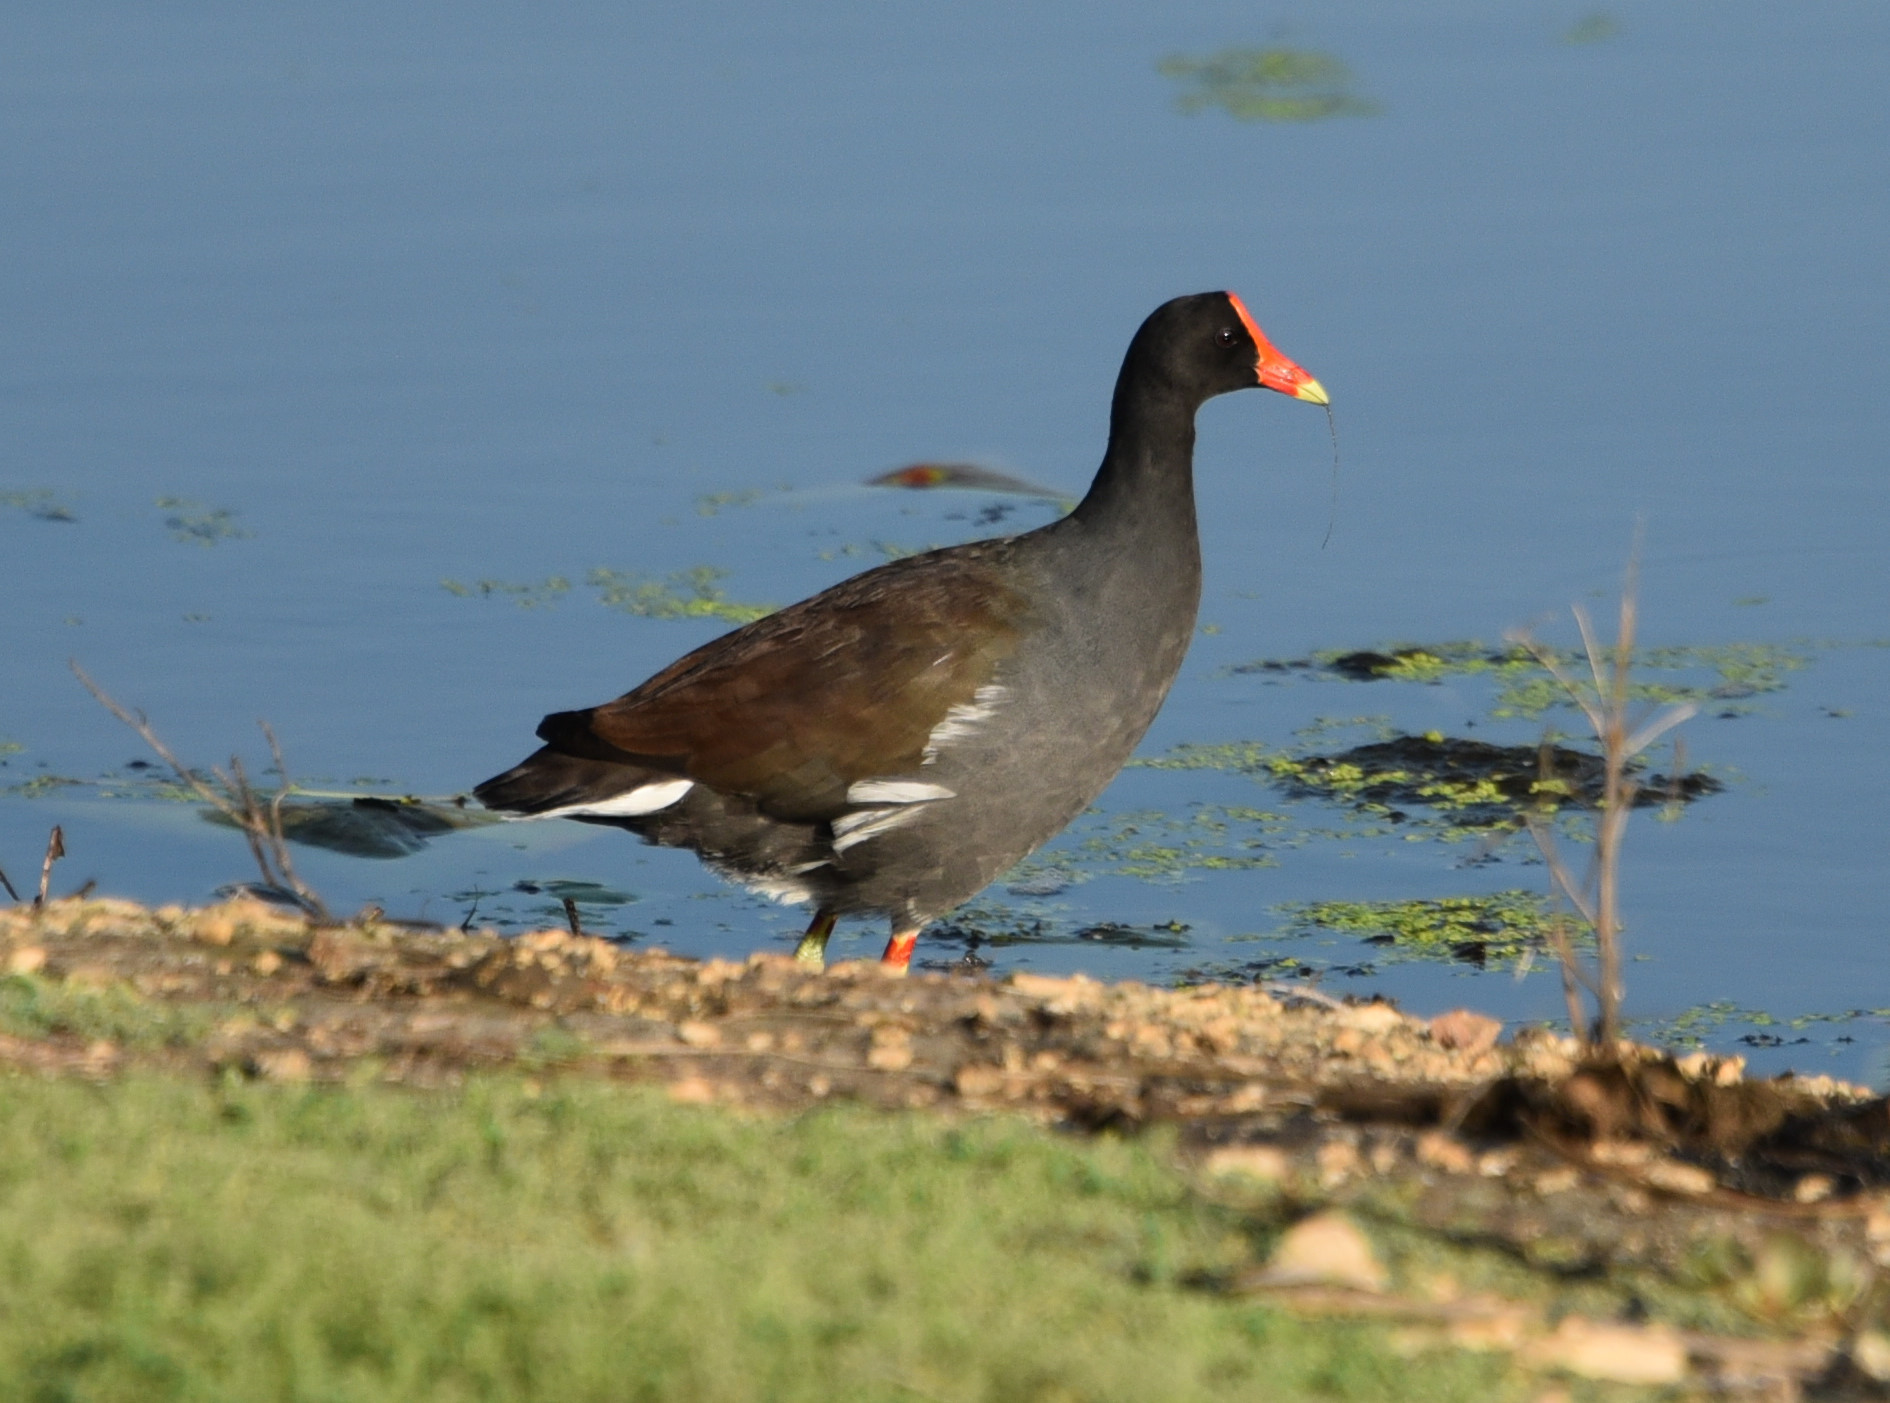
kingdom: Animalia
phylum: Chordata
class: Aves
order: Gruiformes
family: Rallidae
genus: Gallinula
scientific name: Gallinula chloropus
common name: Common moorhen
